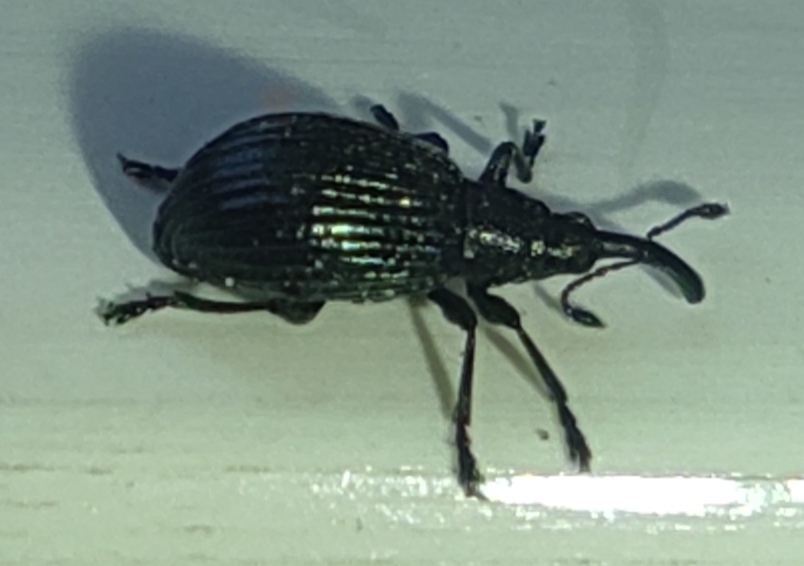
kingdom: Animalia
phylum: Arthropoda
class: Insecta
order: Coleoptera
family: Apionidae
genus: Ischnopterapion
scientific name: Ischnopterapion virens
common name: White clover weevil
